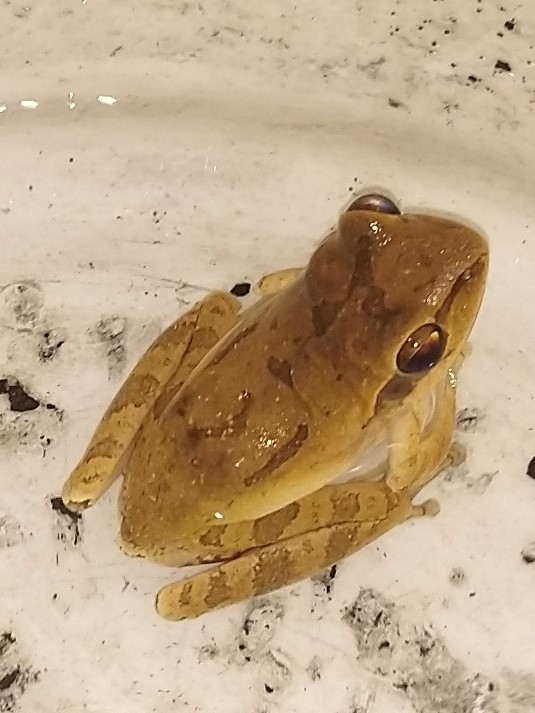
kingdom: Animalia
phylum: Chordata
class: Amphibia
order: Anura
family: Rhacophoridae
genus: Polypedates
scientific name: Polypedates maculatus
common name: Himalayan tree frog
